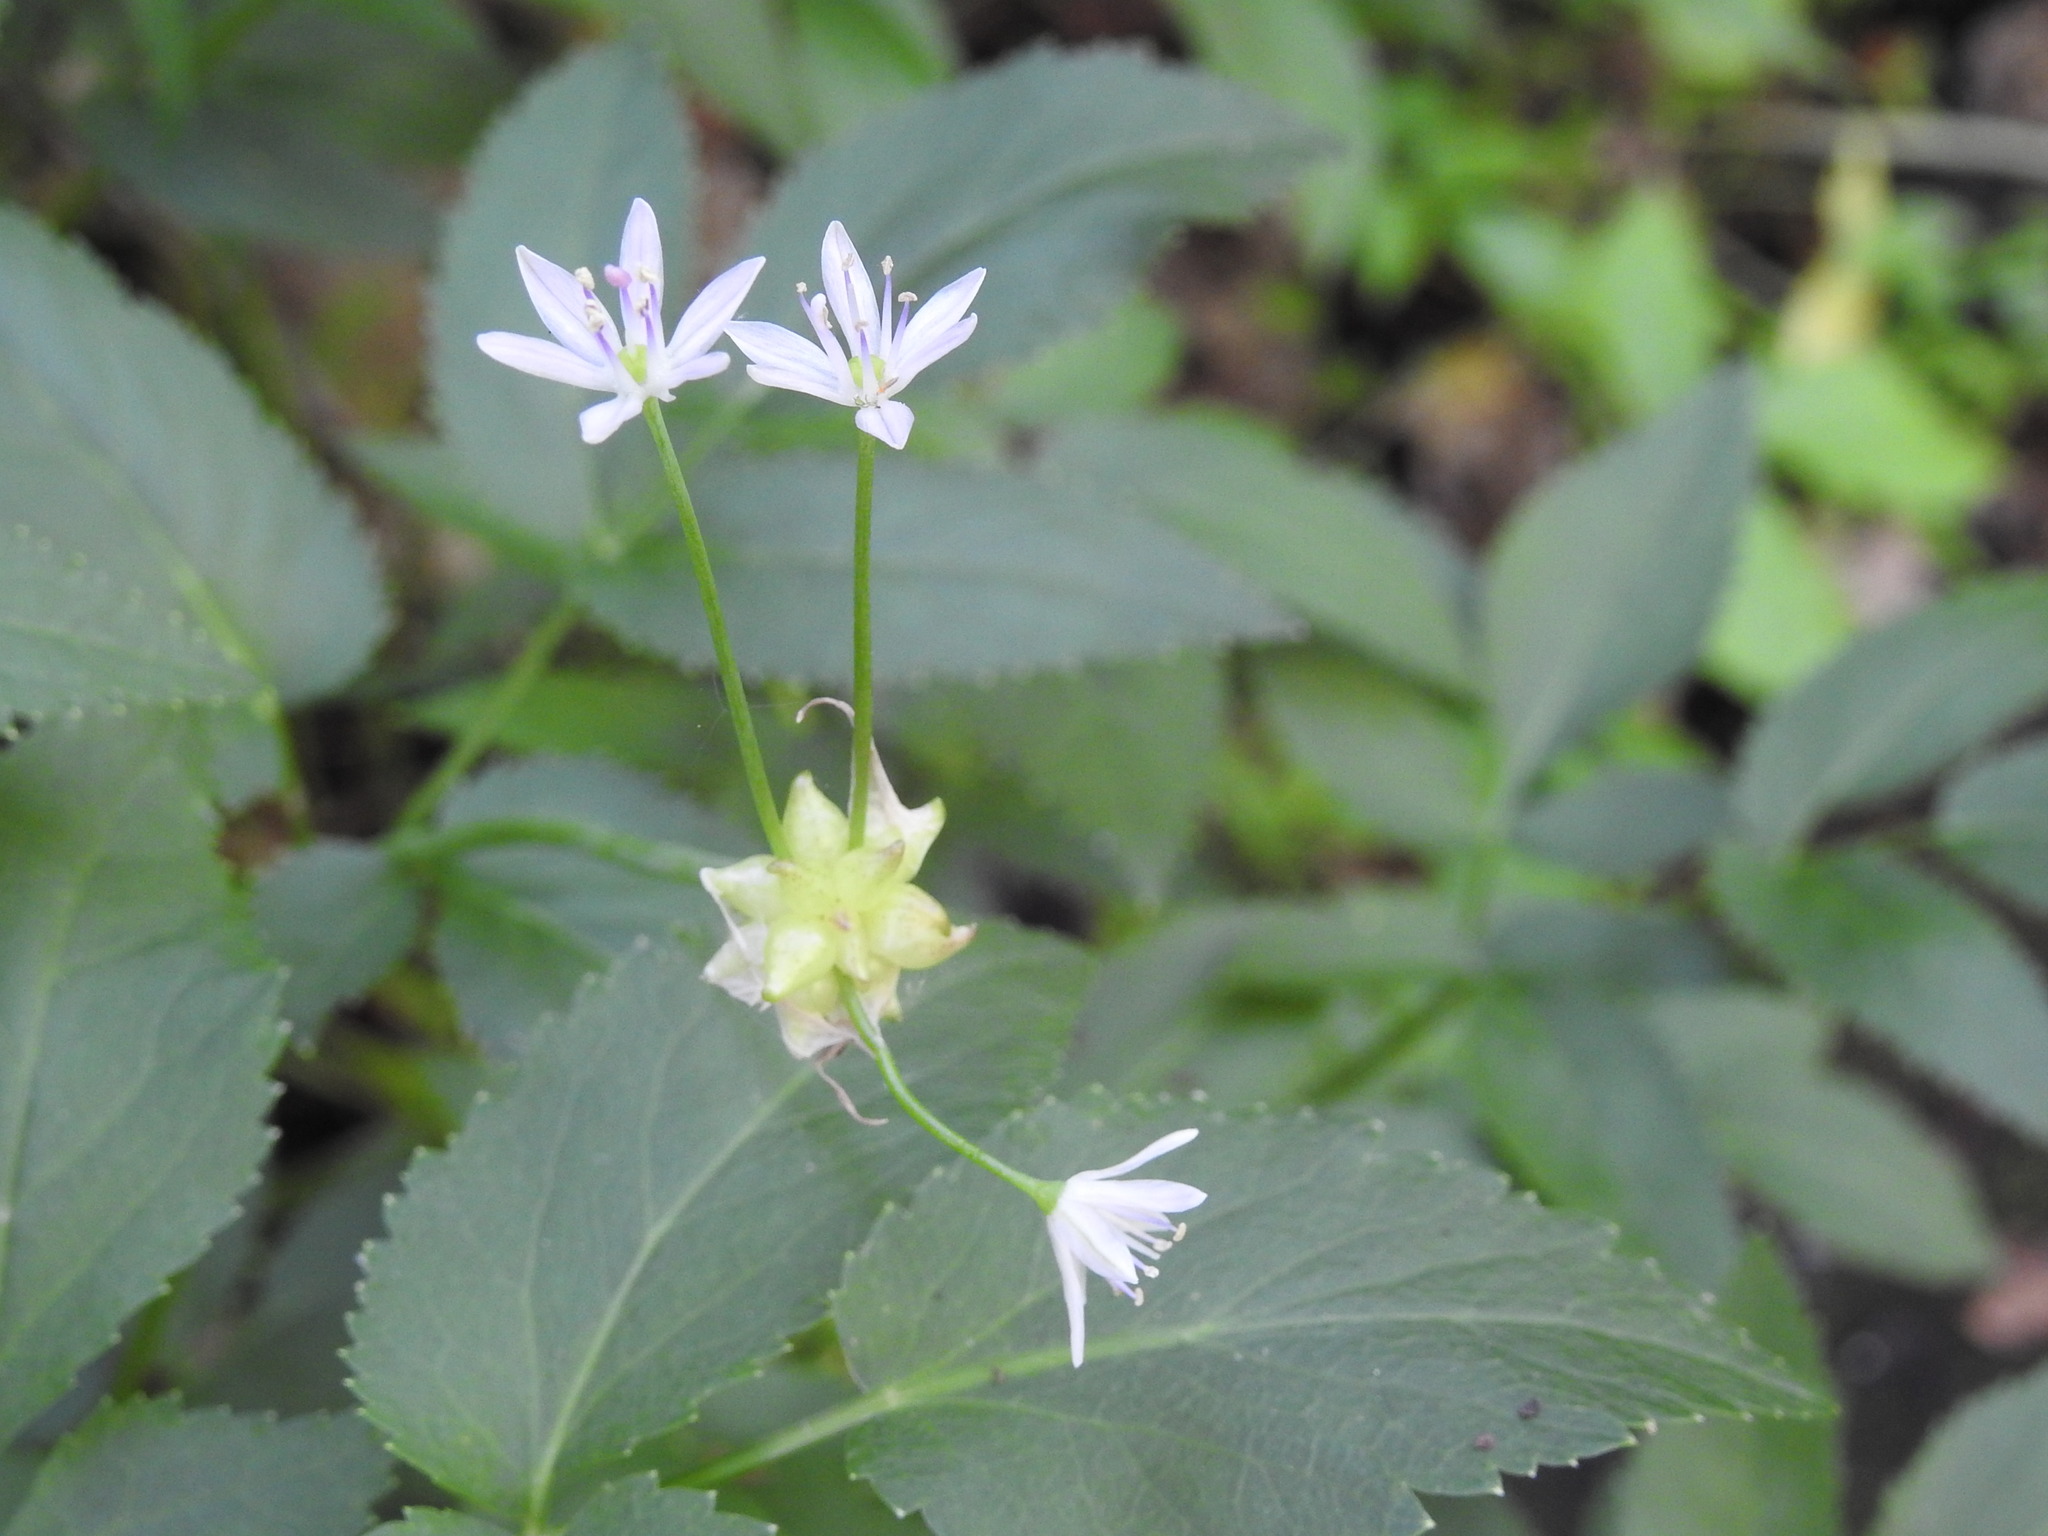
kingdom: Plantae
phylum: Tracheophyta
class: Liliopsida
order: Asparagales
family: Amaryllidaceae
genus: Allium
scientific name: Allium canadense
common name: Meadow garlic
